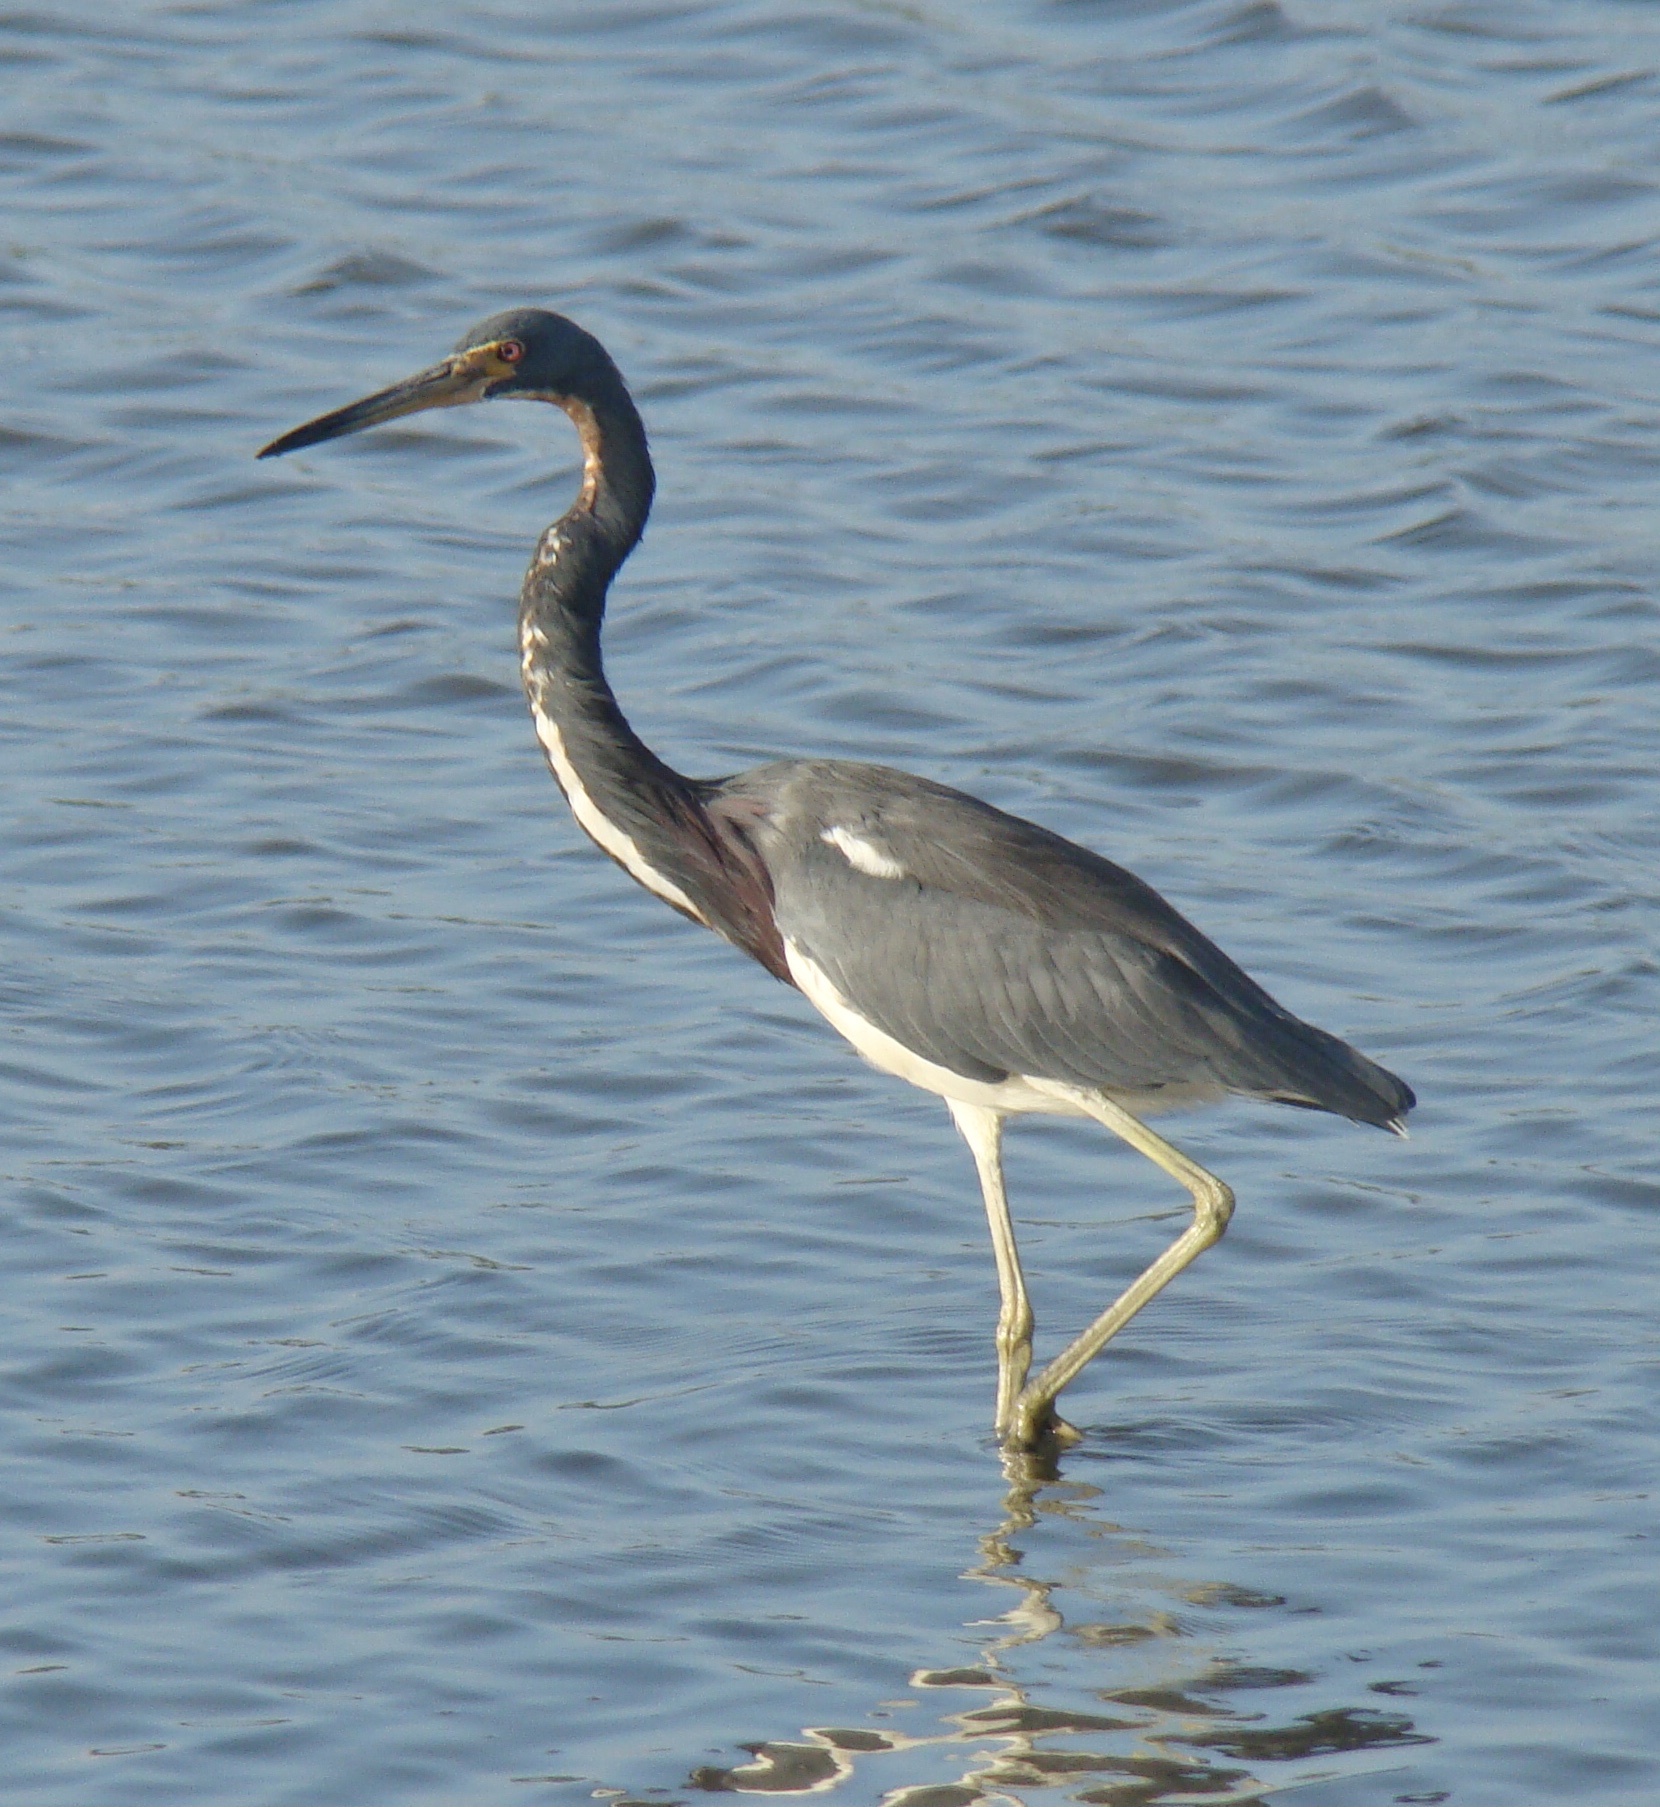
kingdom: Animalia
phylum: Chordata
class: Aves
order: Pelecaniformes
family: Ardeidae
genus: Egretta
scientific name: Egretta tricolor
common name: Tricolored heron
